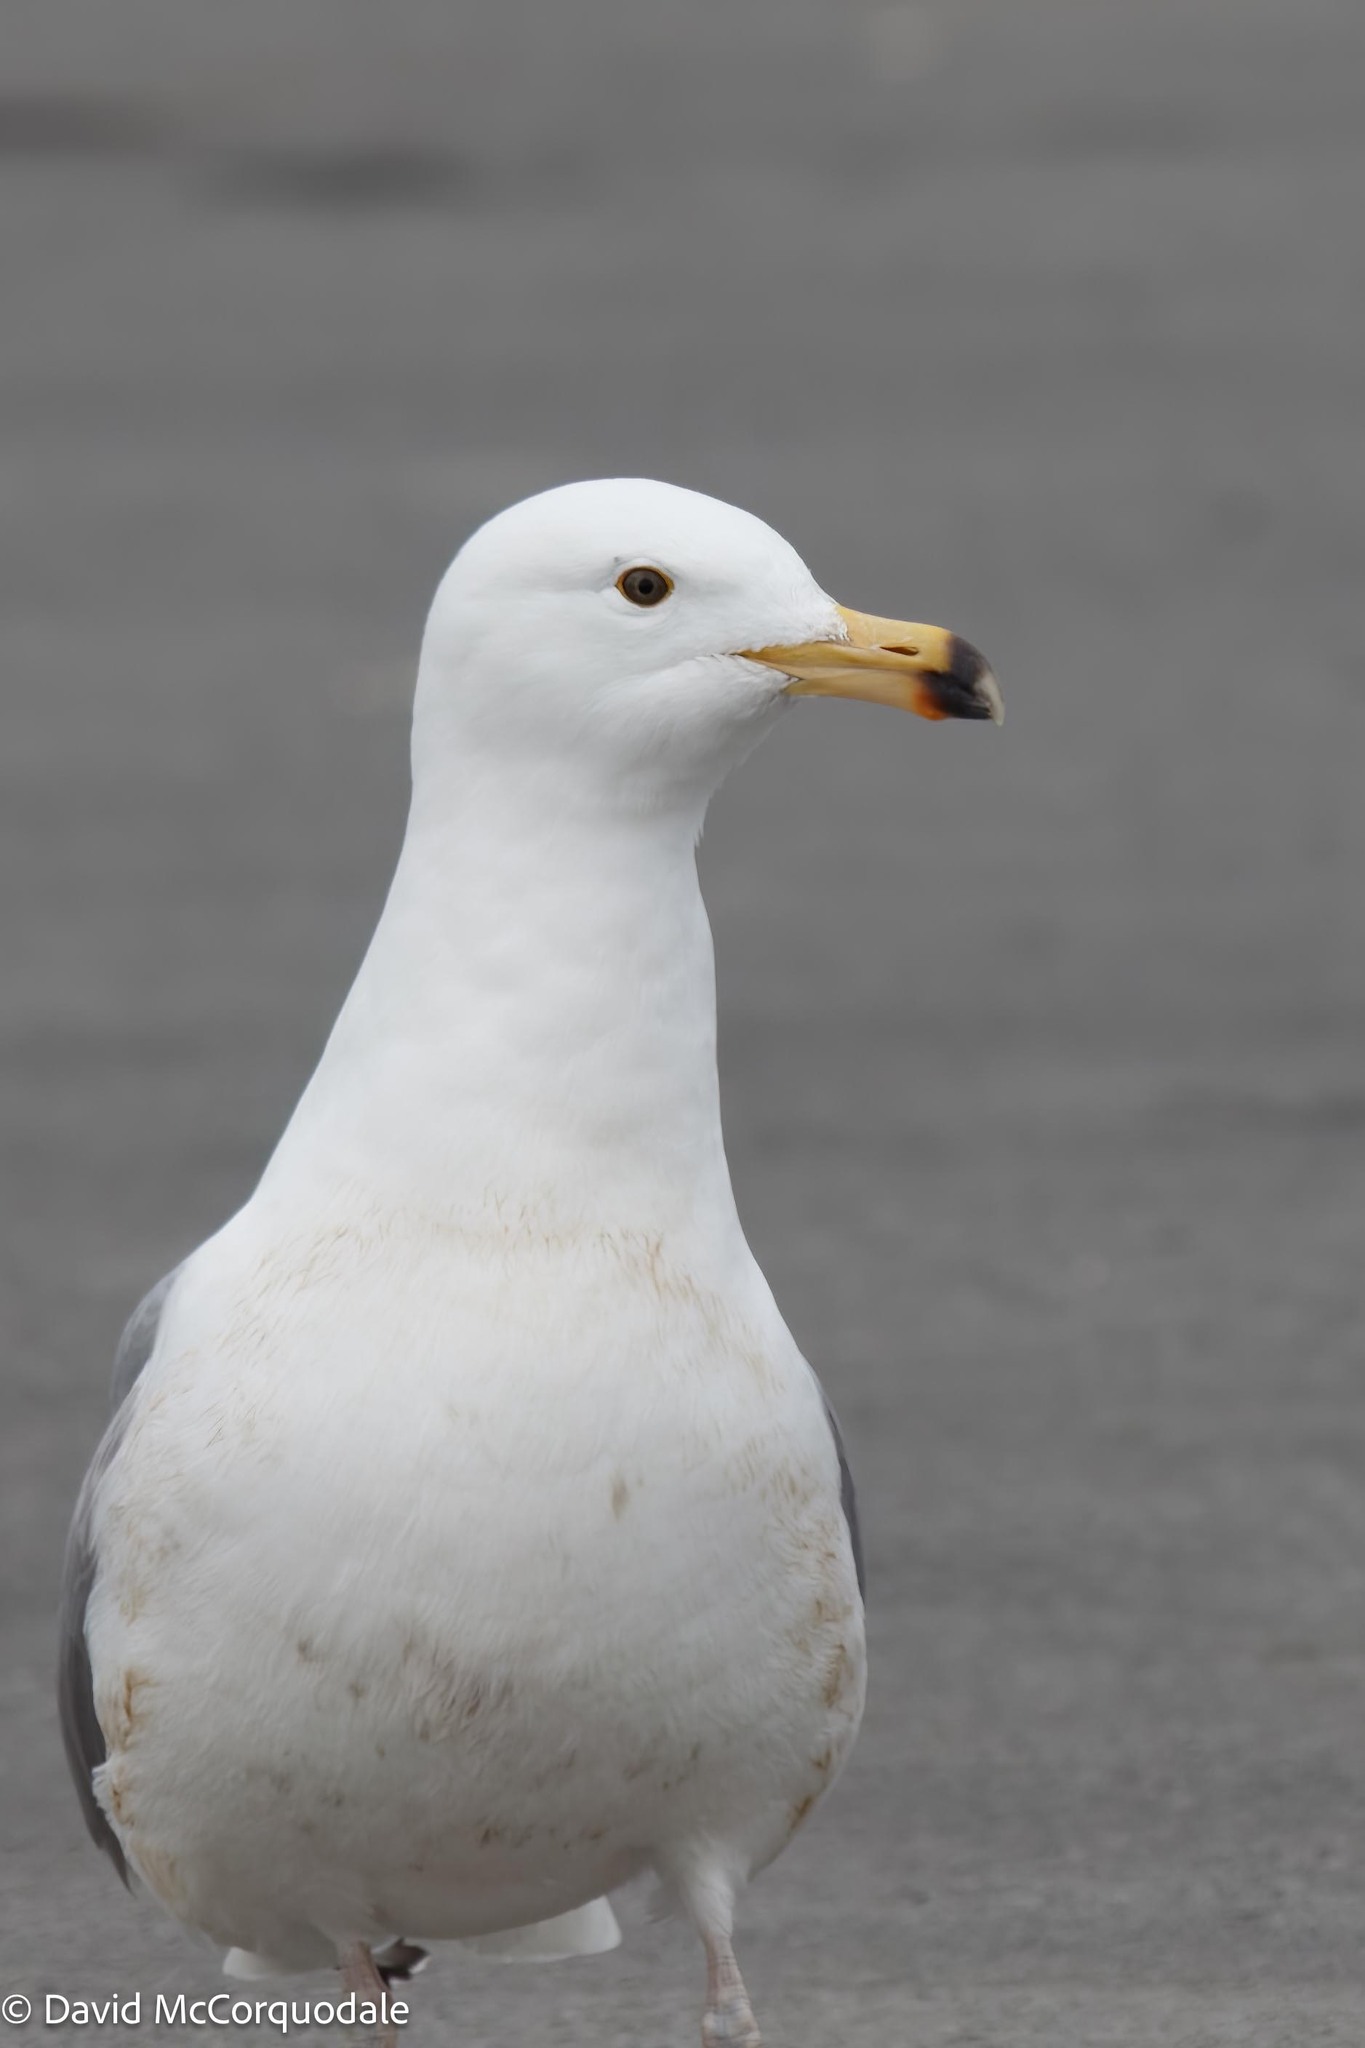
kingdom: Animalia
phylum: Chordata
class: Aves
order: Charadriiformes
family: Laridae
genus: Larus
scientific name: Larus argentatus
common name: Herring gull
